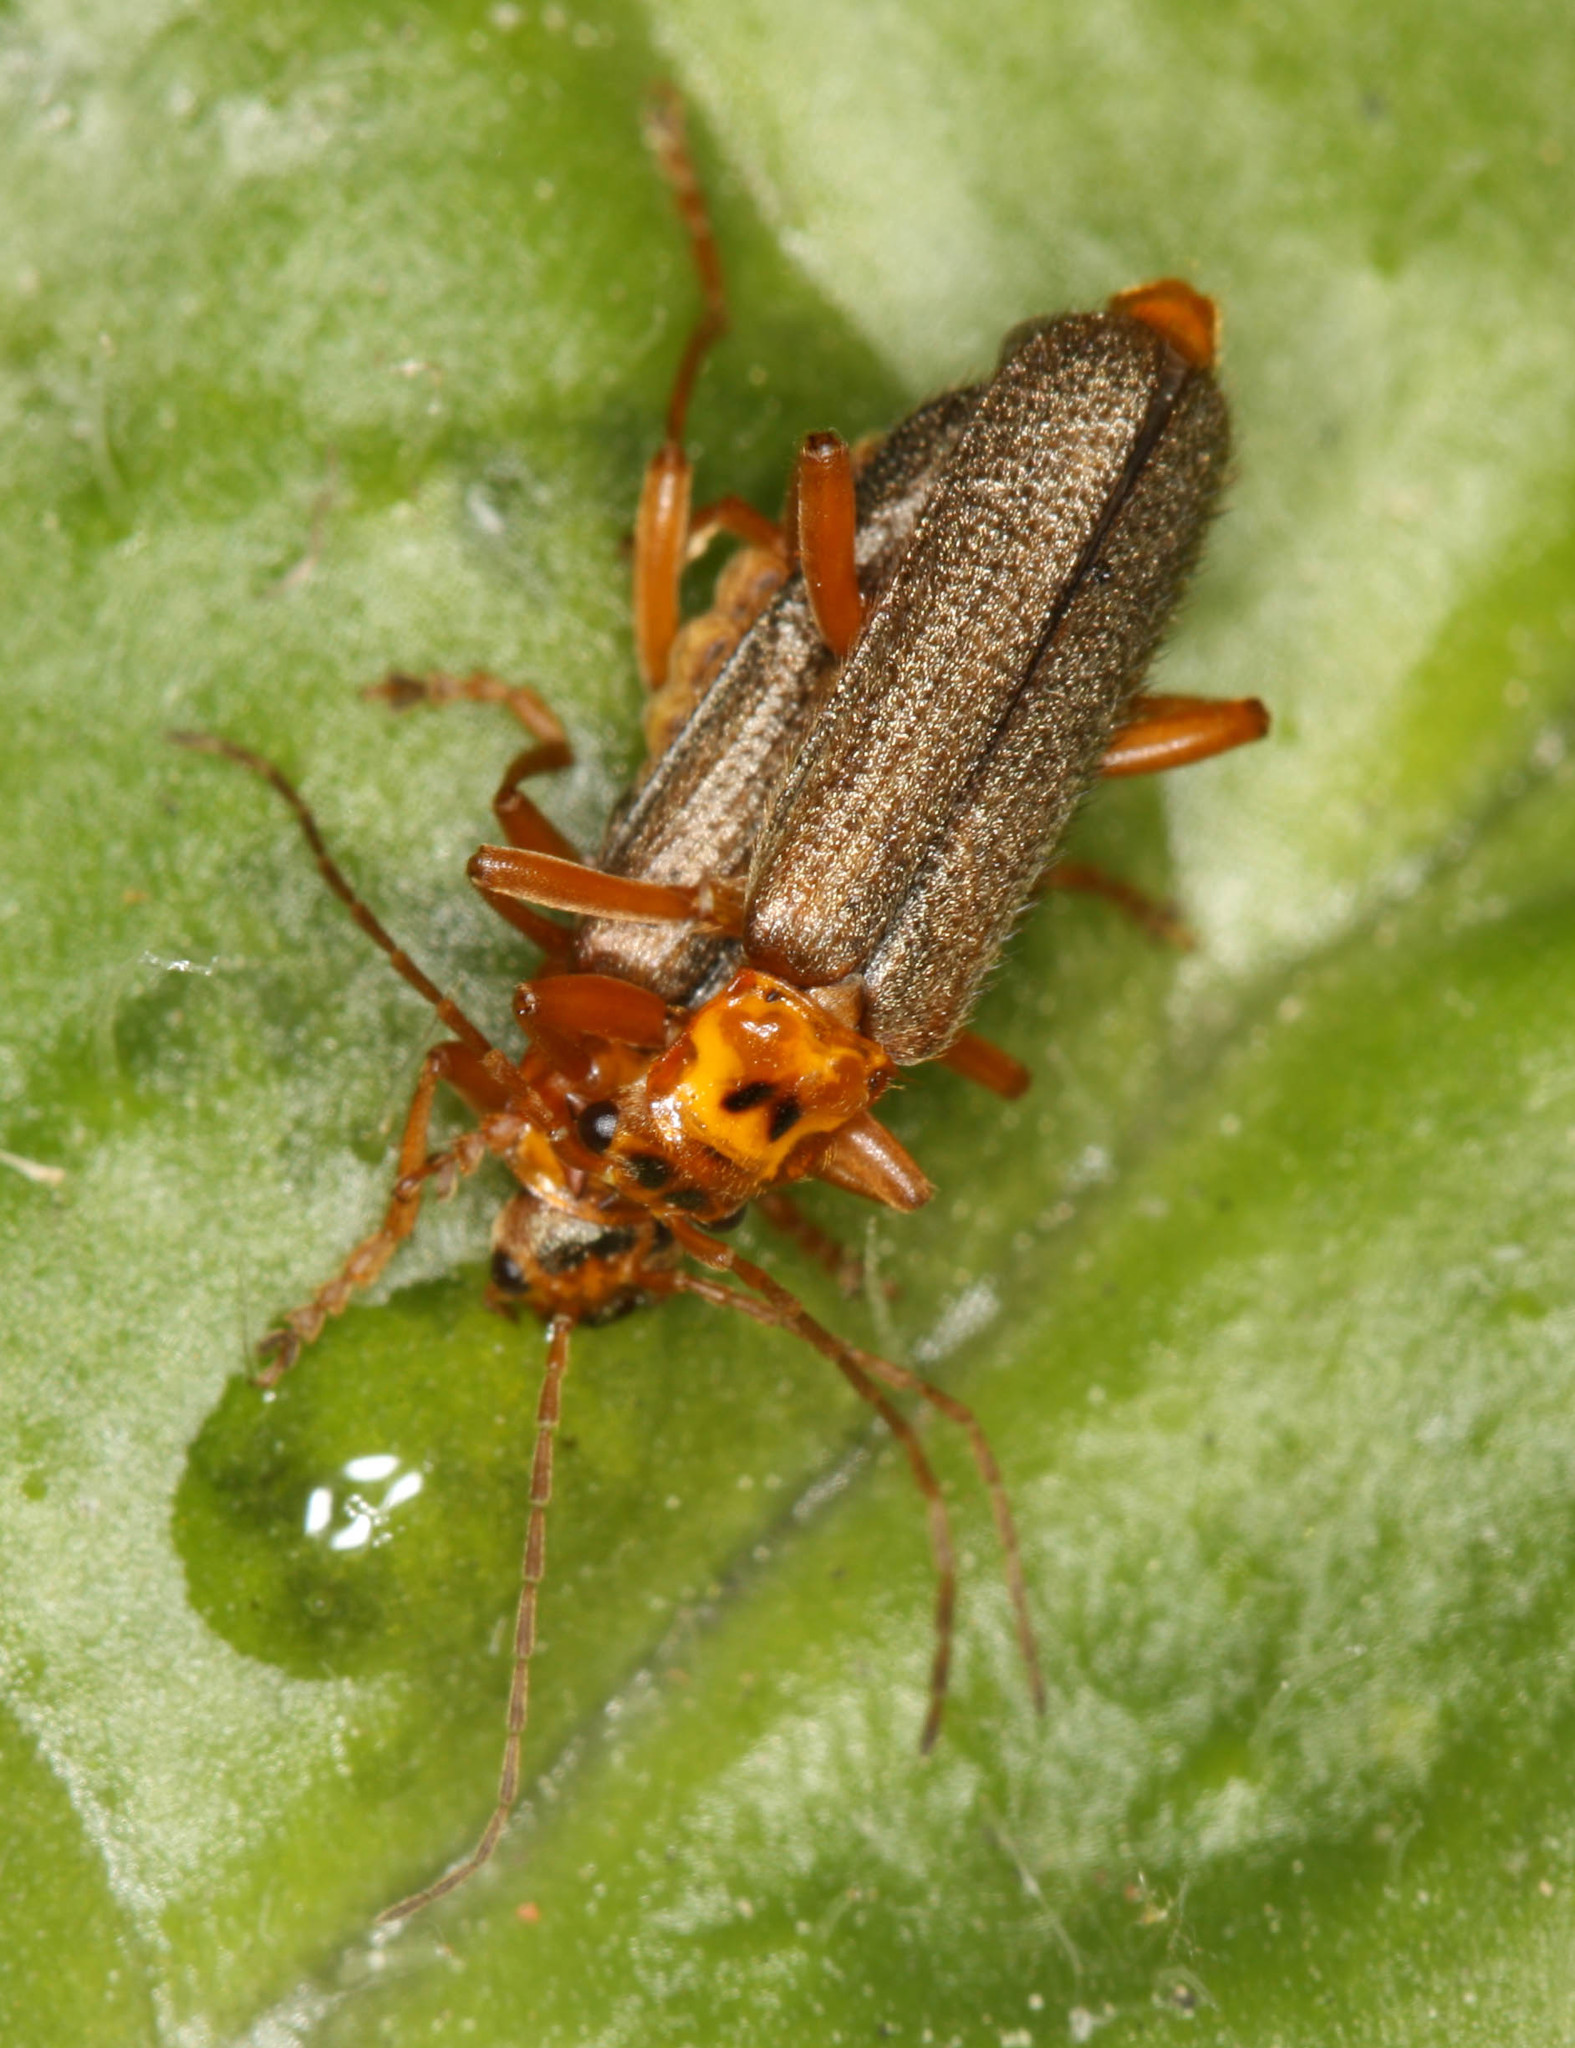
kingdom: Animalia
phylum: Arthropoda
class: Insecta
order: Coleoptera
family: Cantharidae
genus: Cultellunguis
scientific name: Cultellunguis americanus
